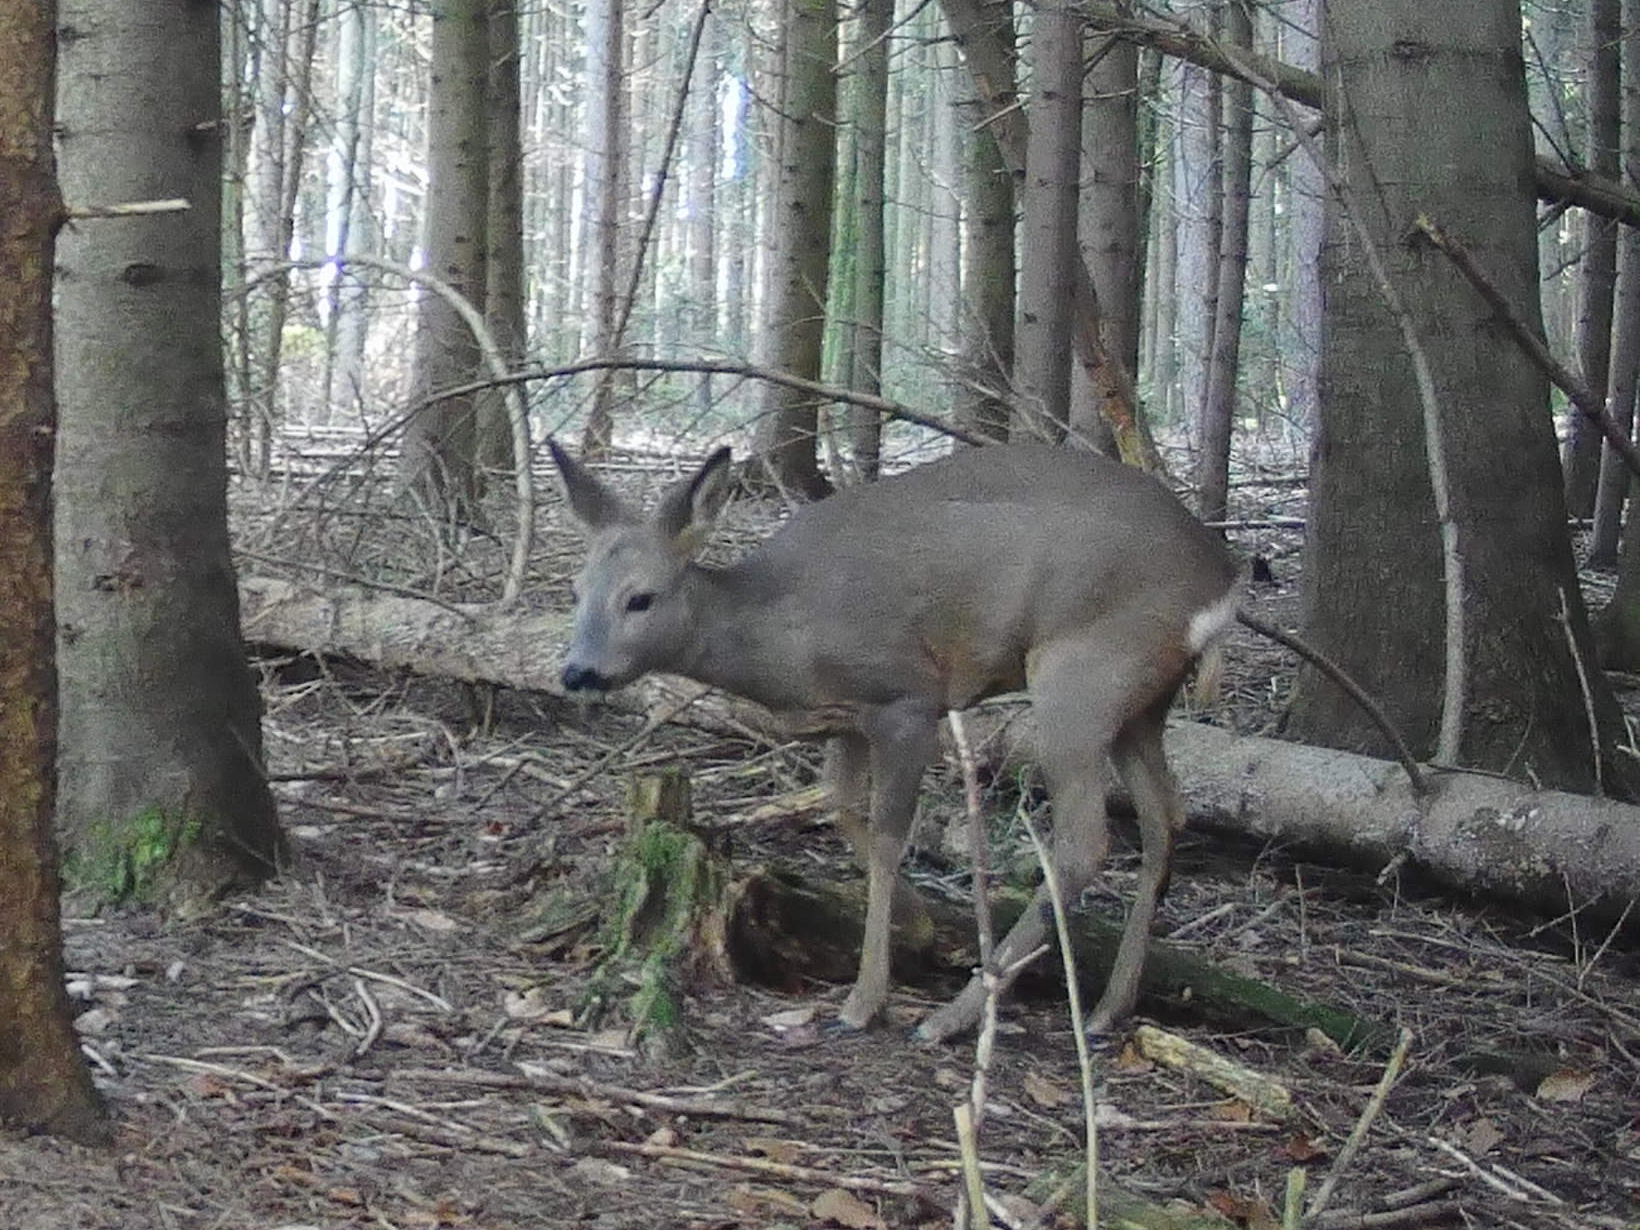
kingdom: Animalia
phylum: Chordata
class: Mammalia
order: Artiodactyla
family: Cervidae
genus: Capreolus
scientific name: Capreolus capreolus
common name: Western roe deer
